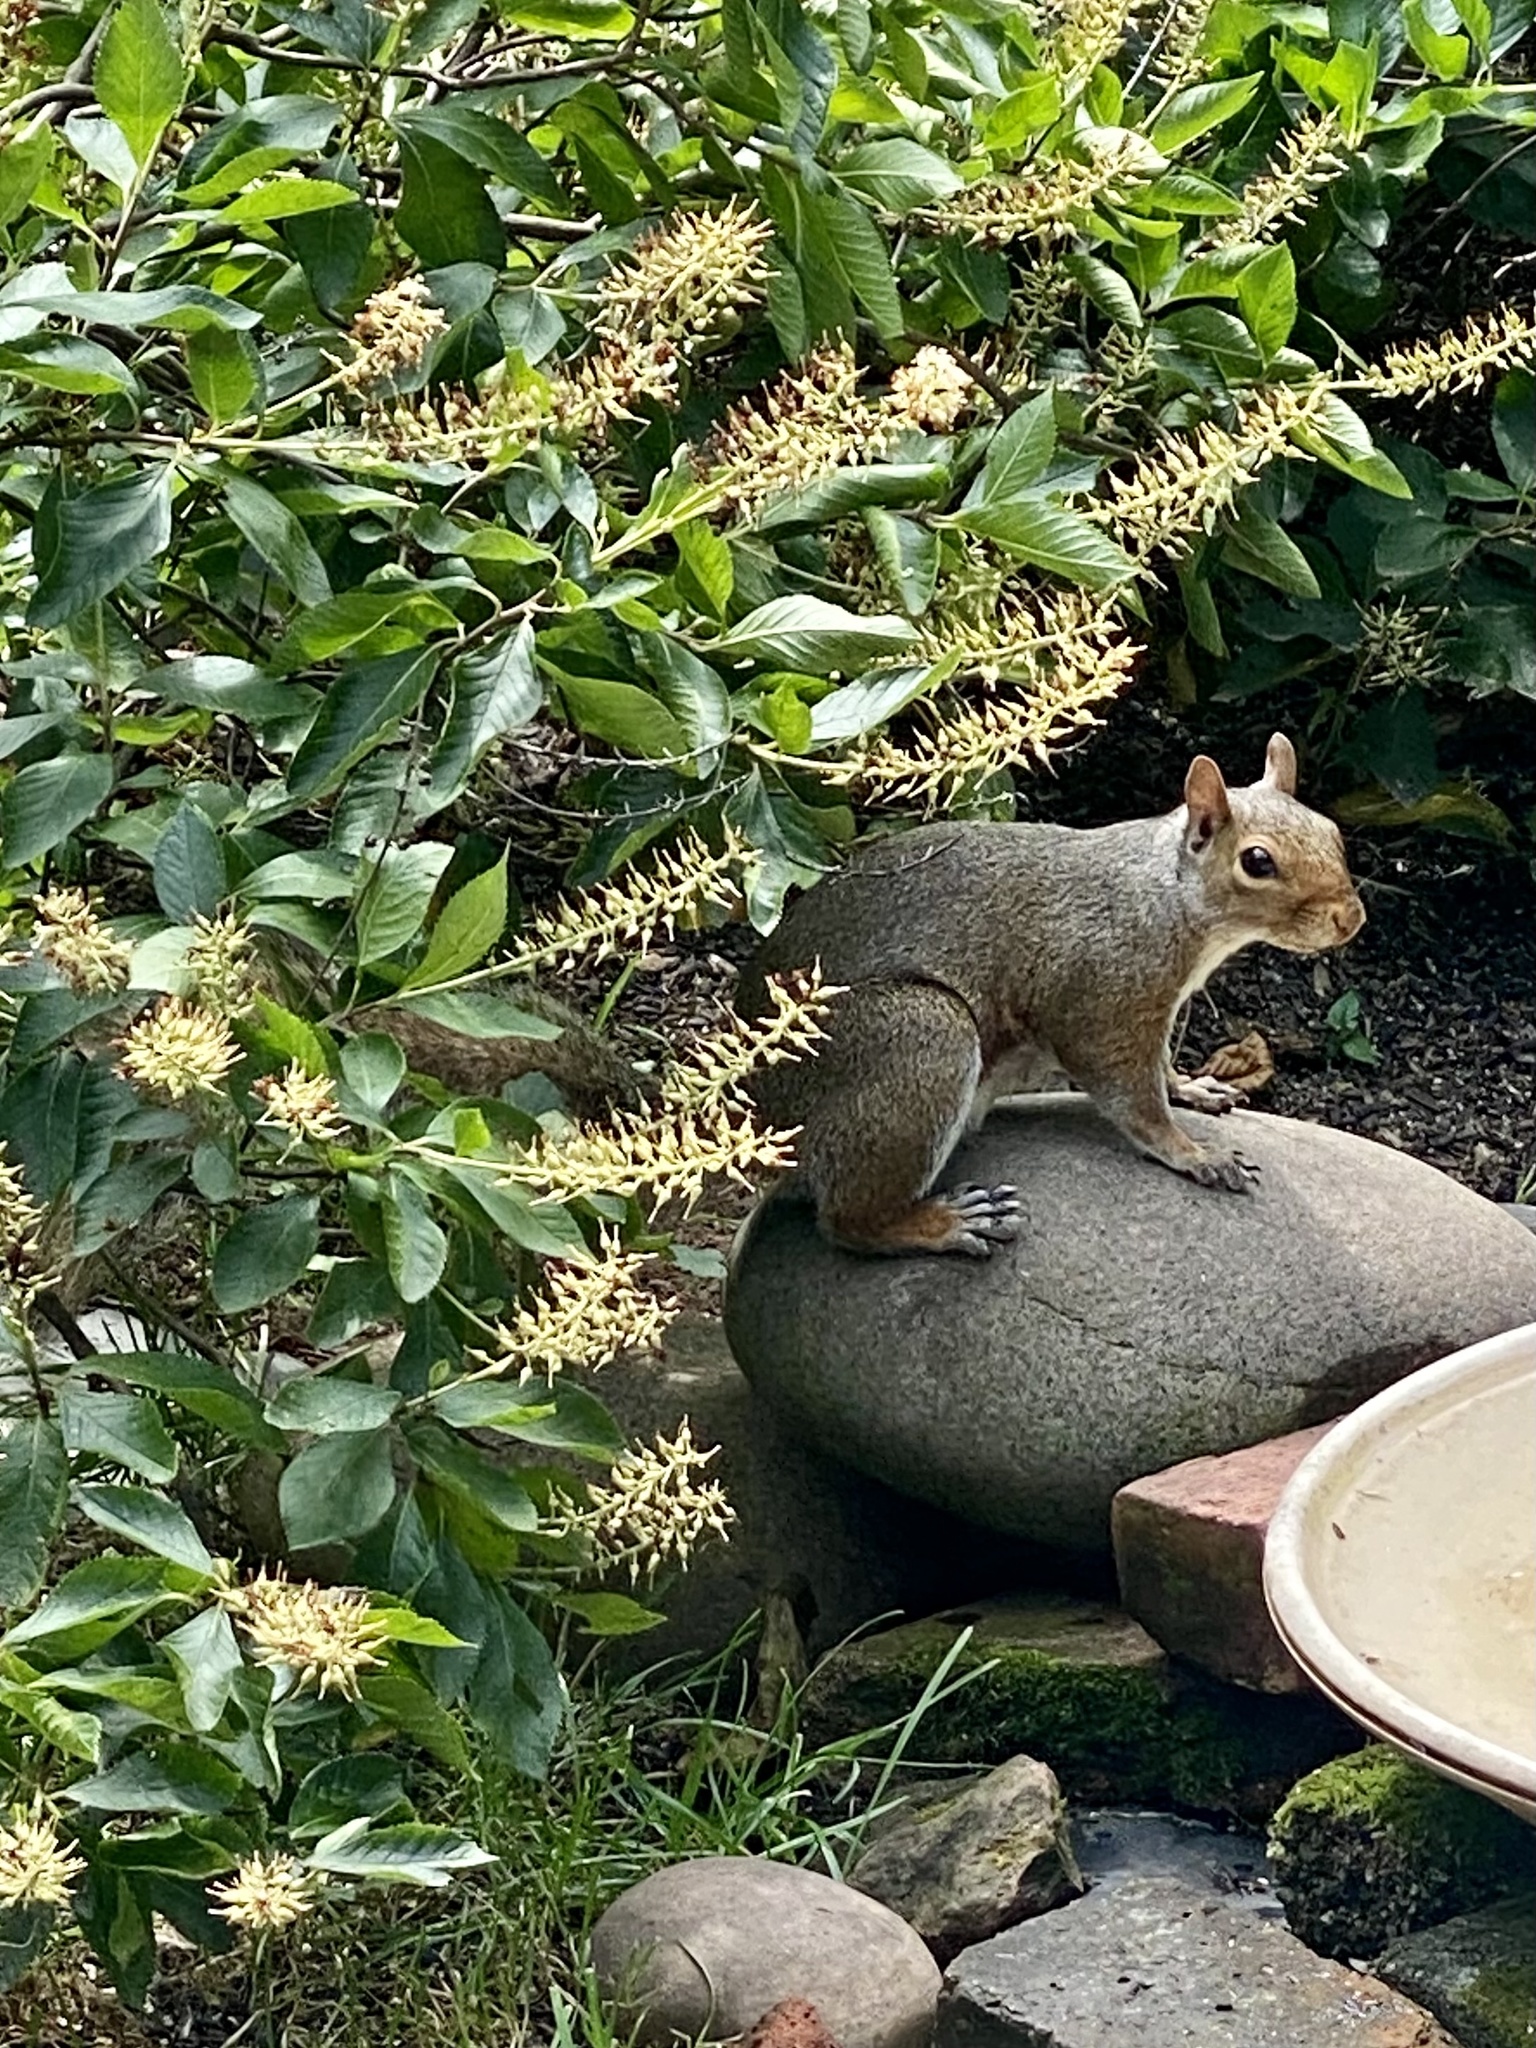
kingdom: Animalia
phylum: Chordata
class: Mammalia
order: Rodentia
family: Sciuridae
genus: Sciurus
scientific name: Sciurus carolinensis
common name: Eastern gray squirrel
